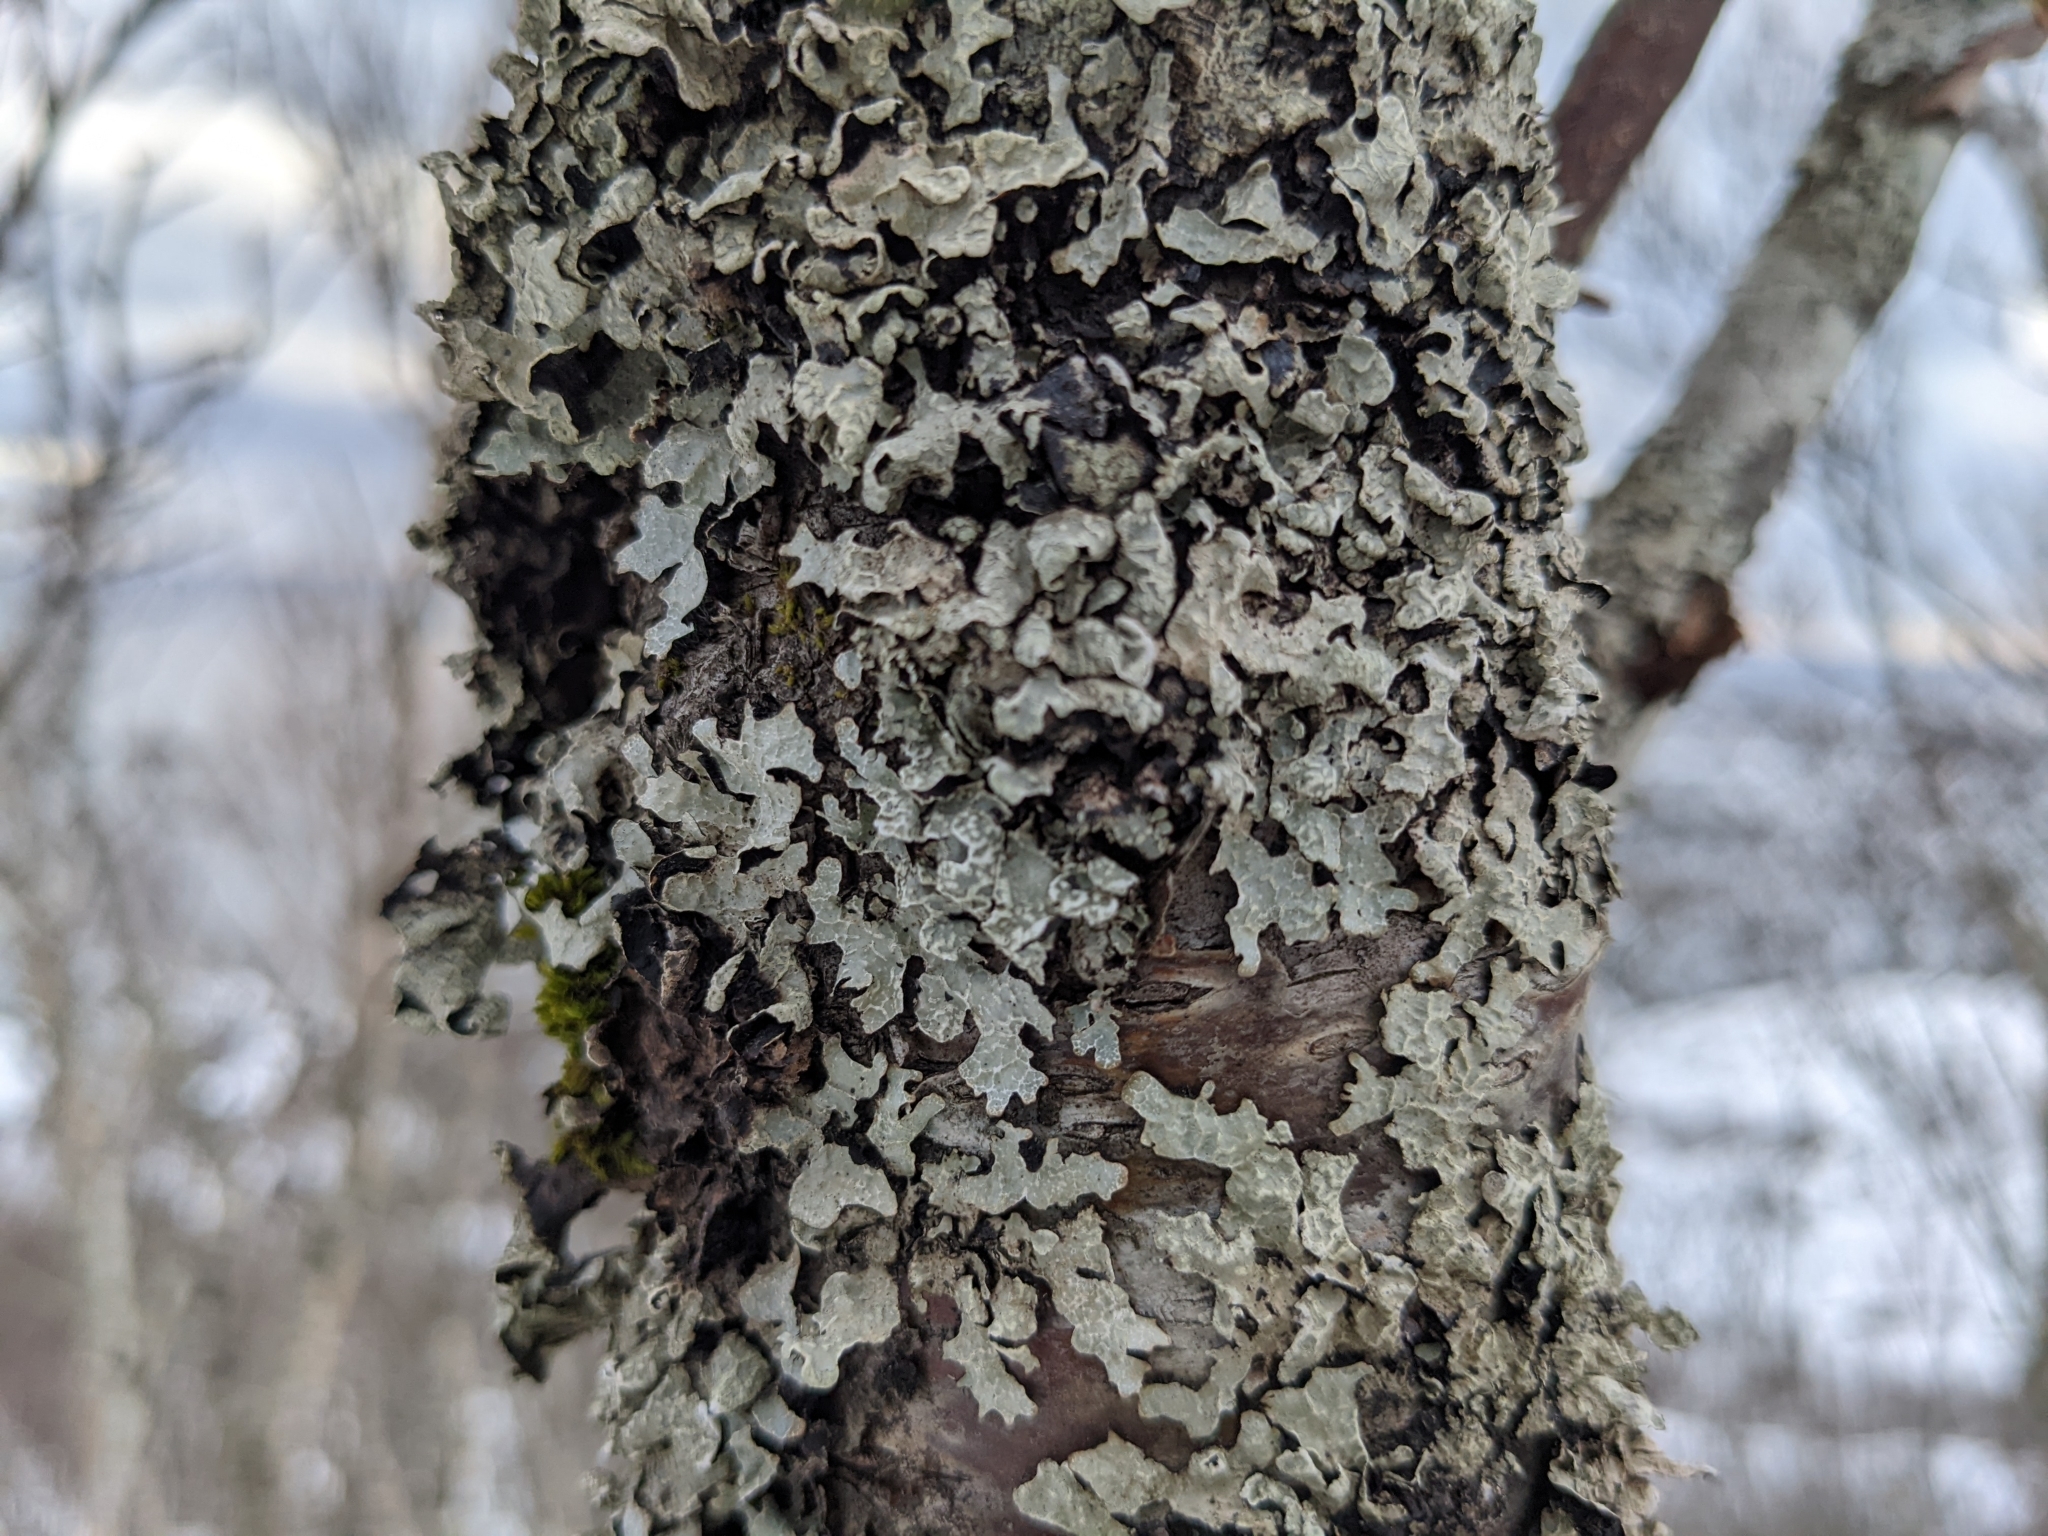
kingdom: Fungi
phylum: Ascomycota
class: Lecanoromycetes
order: Lecanorales
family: Parmeliaceae
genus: Parmelia
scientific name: Parmelia sulcata
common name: Netted shield lichen
